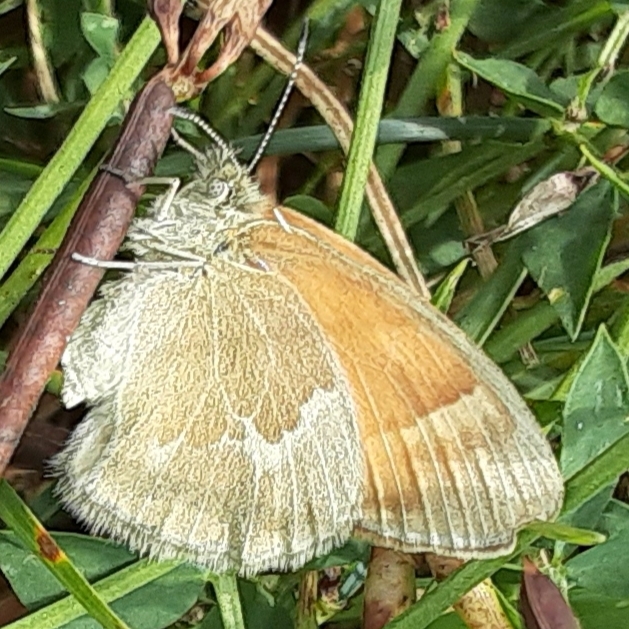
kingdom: Animalia
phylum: Arthropoda
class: Insecta
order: Lepidoptera
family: Nymphalidae
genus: Coenonympha
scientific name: Coenonympha california
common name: Common ringlet
